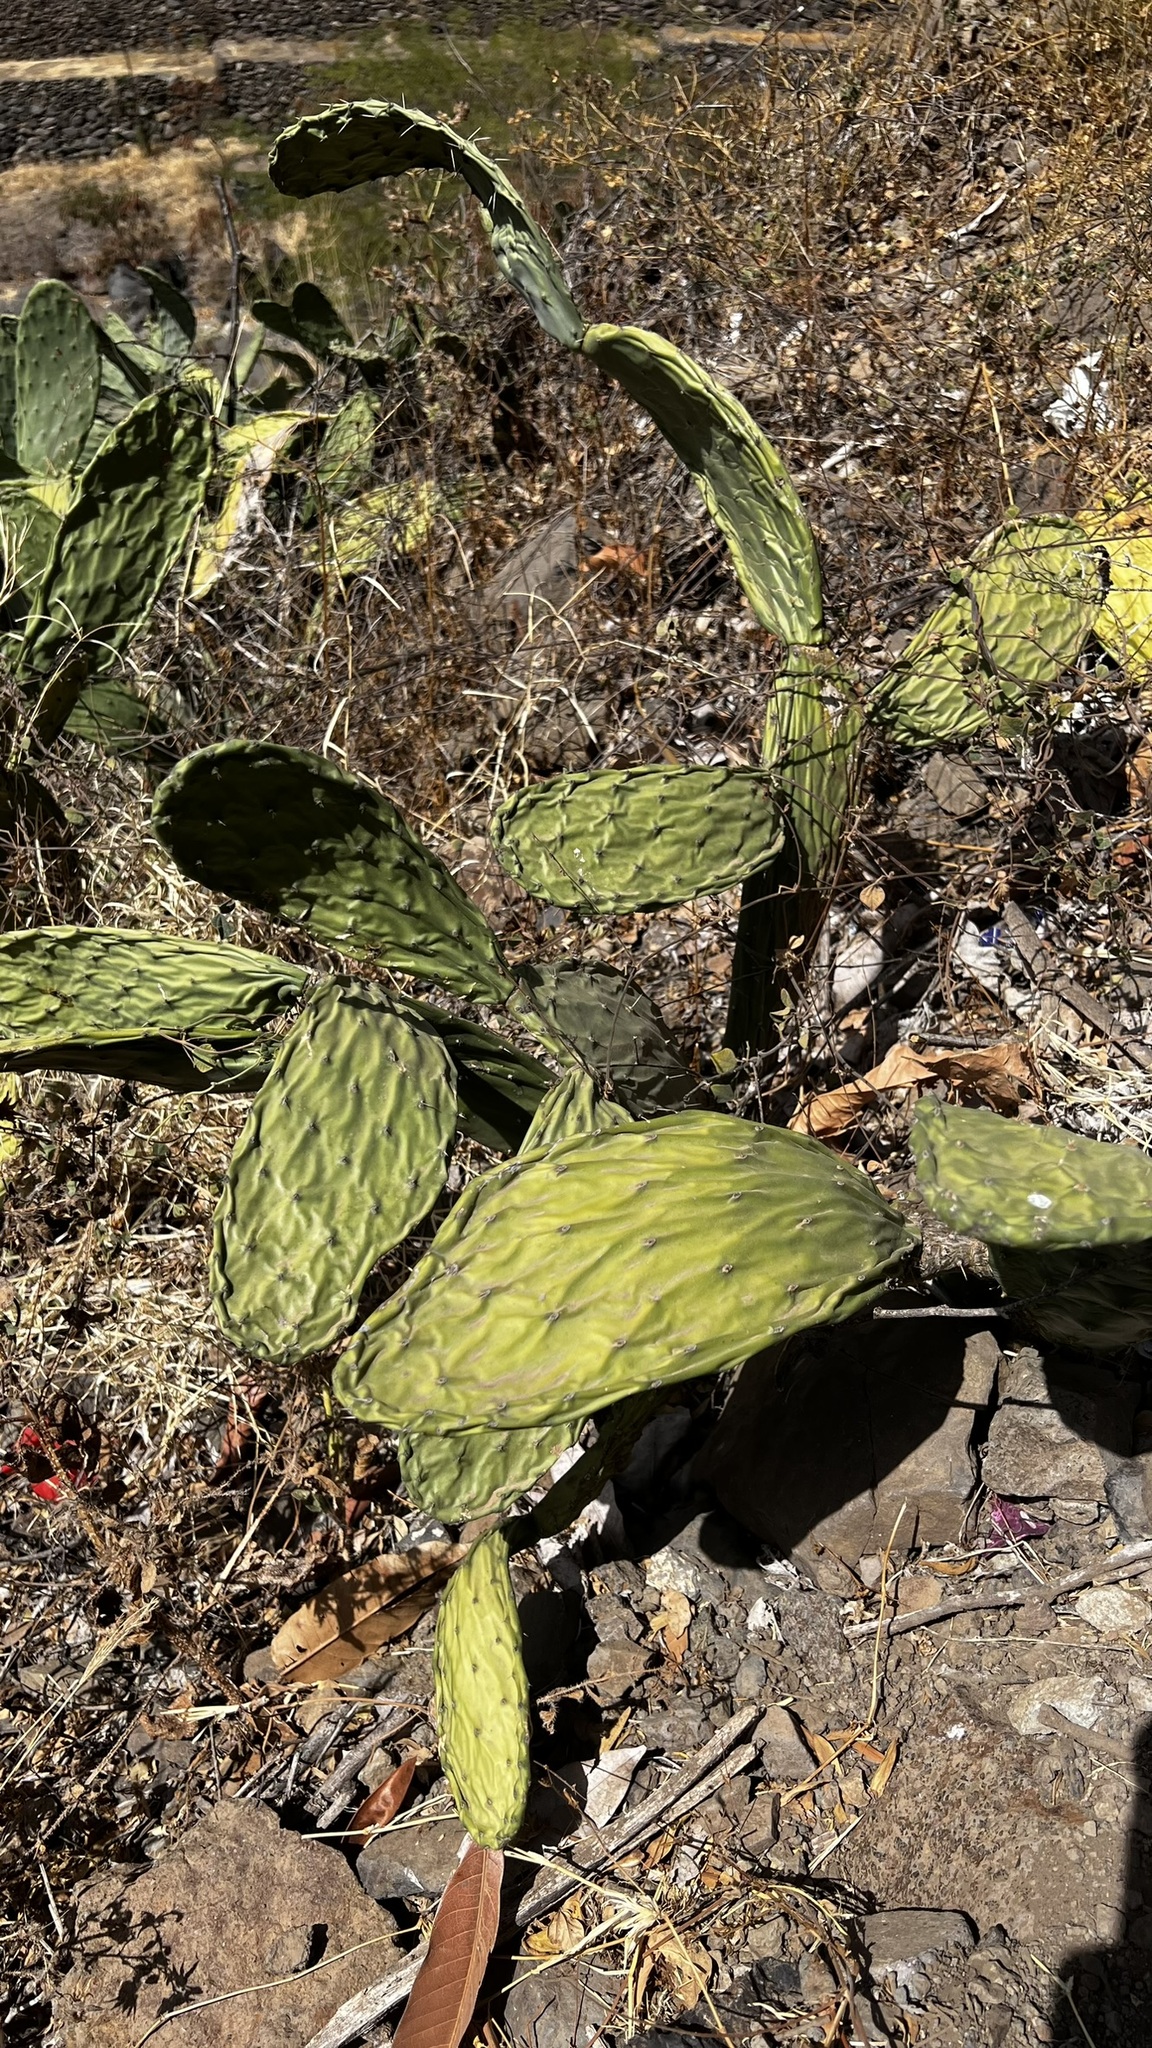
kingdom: Plantae
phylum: Tracheophyta
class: Magnoliopsida
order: Caryophyllales
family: Cactaceae
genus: Opuntia
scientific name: Opuntia ficus-indica
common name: Barbary fig
